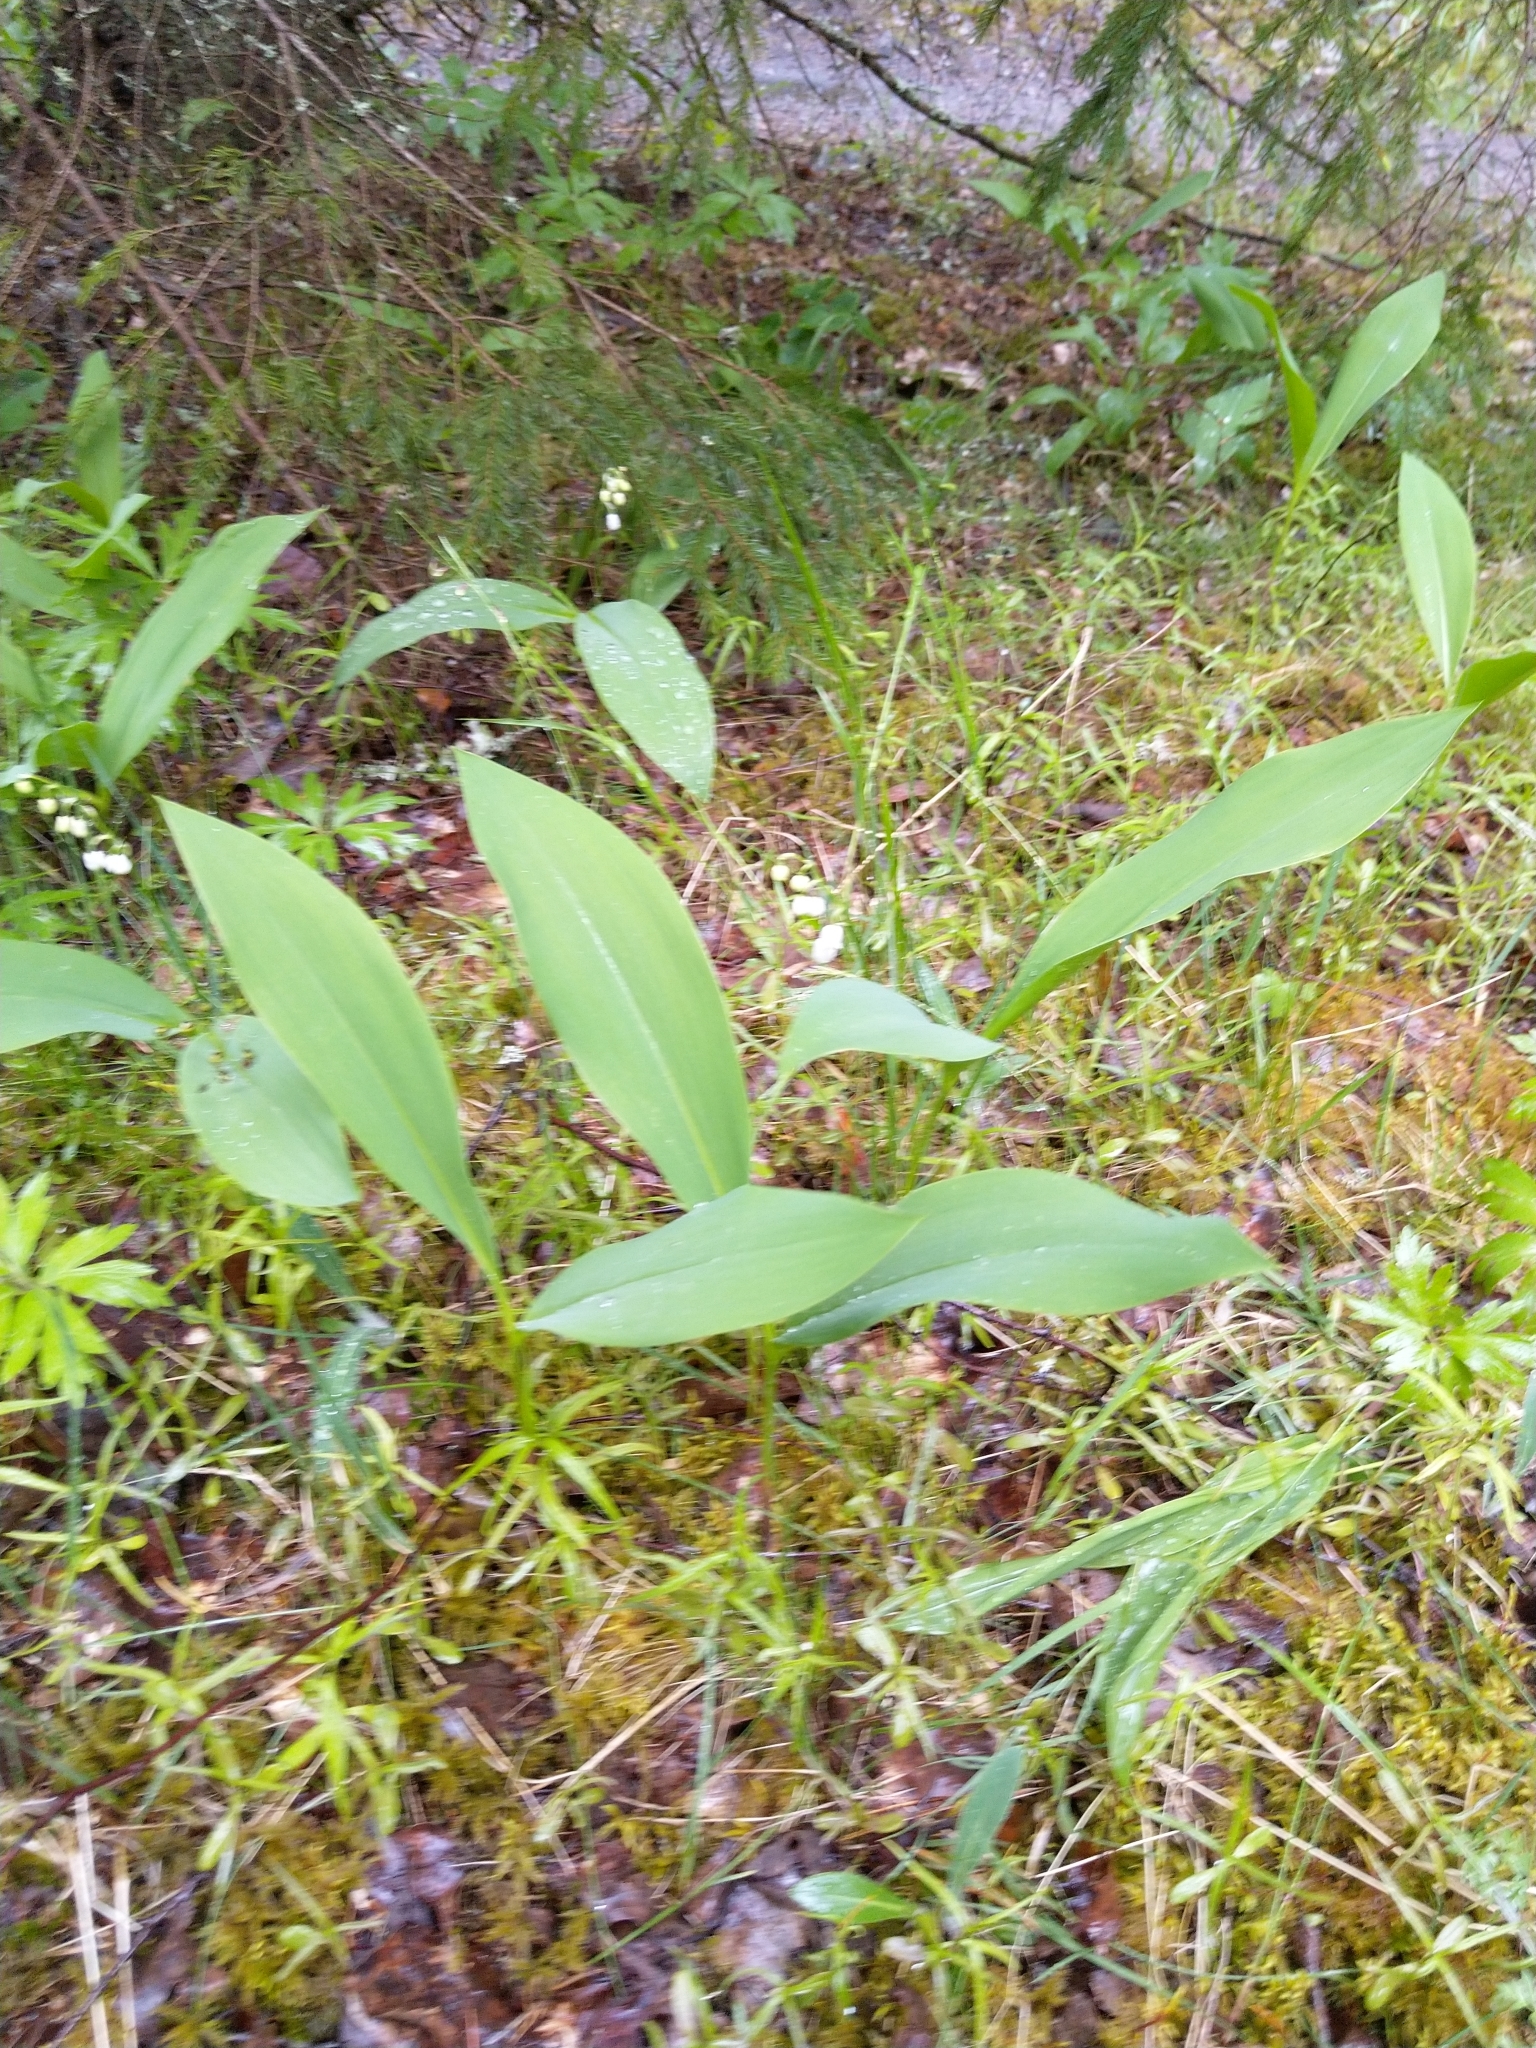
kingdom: Plantae
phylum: Tracheophyta
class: Liliopsida
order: Asparagales
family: Asparagaceae
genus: Convallaria
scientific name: Convallaria majalis
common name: Lily-of-the-valley
